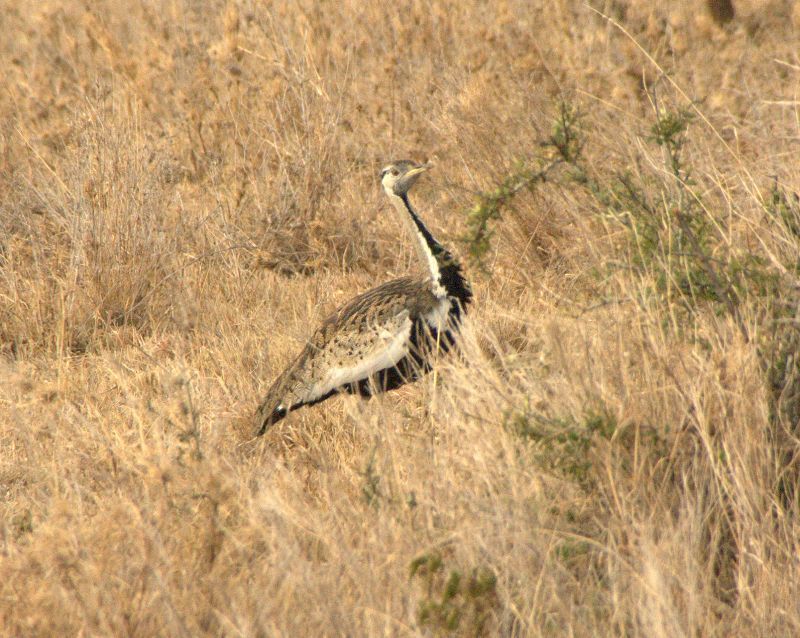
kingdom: Animalia
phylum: Chordata
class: Aves
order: Otidiformes
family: Otididae
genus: Lissotis
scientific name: Lissotis melanogaster
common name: Black-bellied bustard
